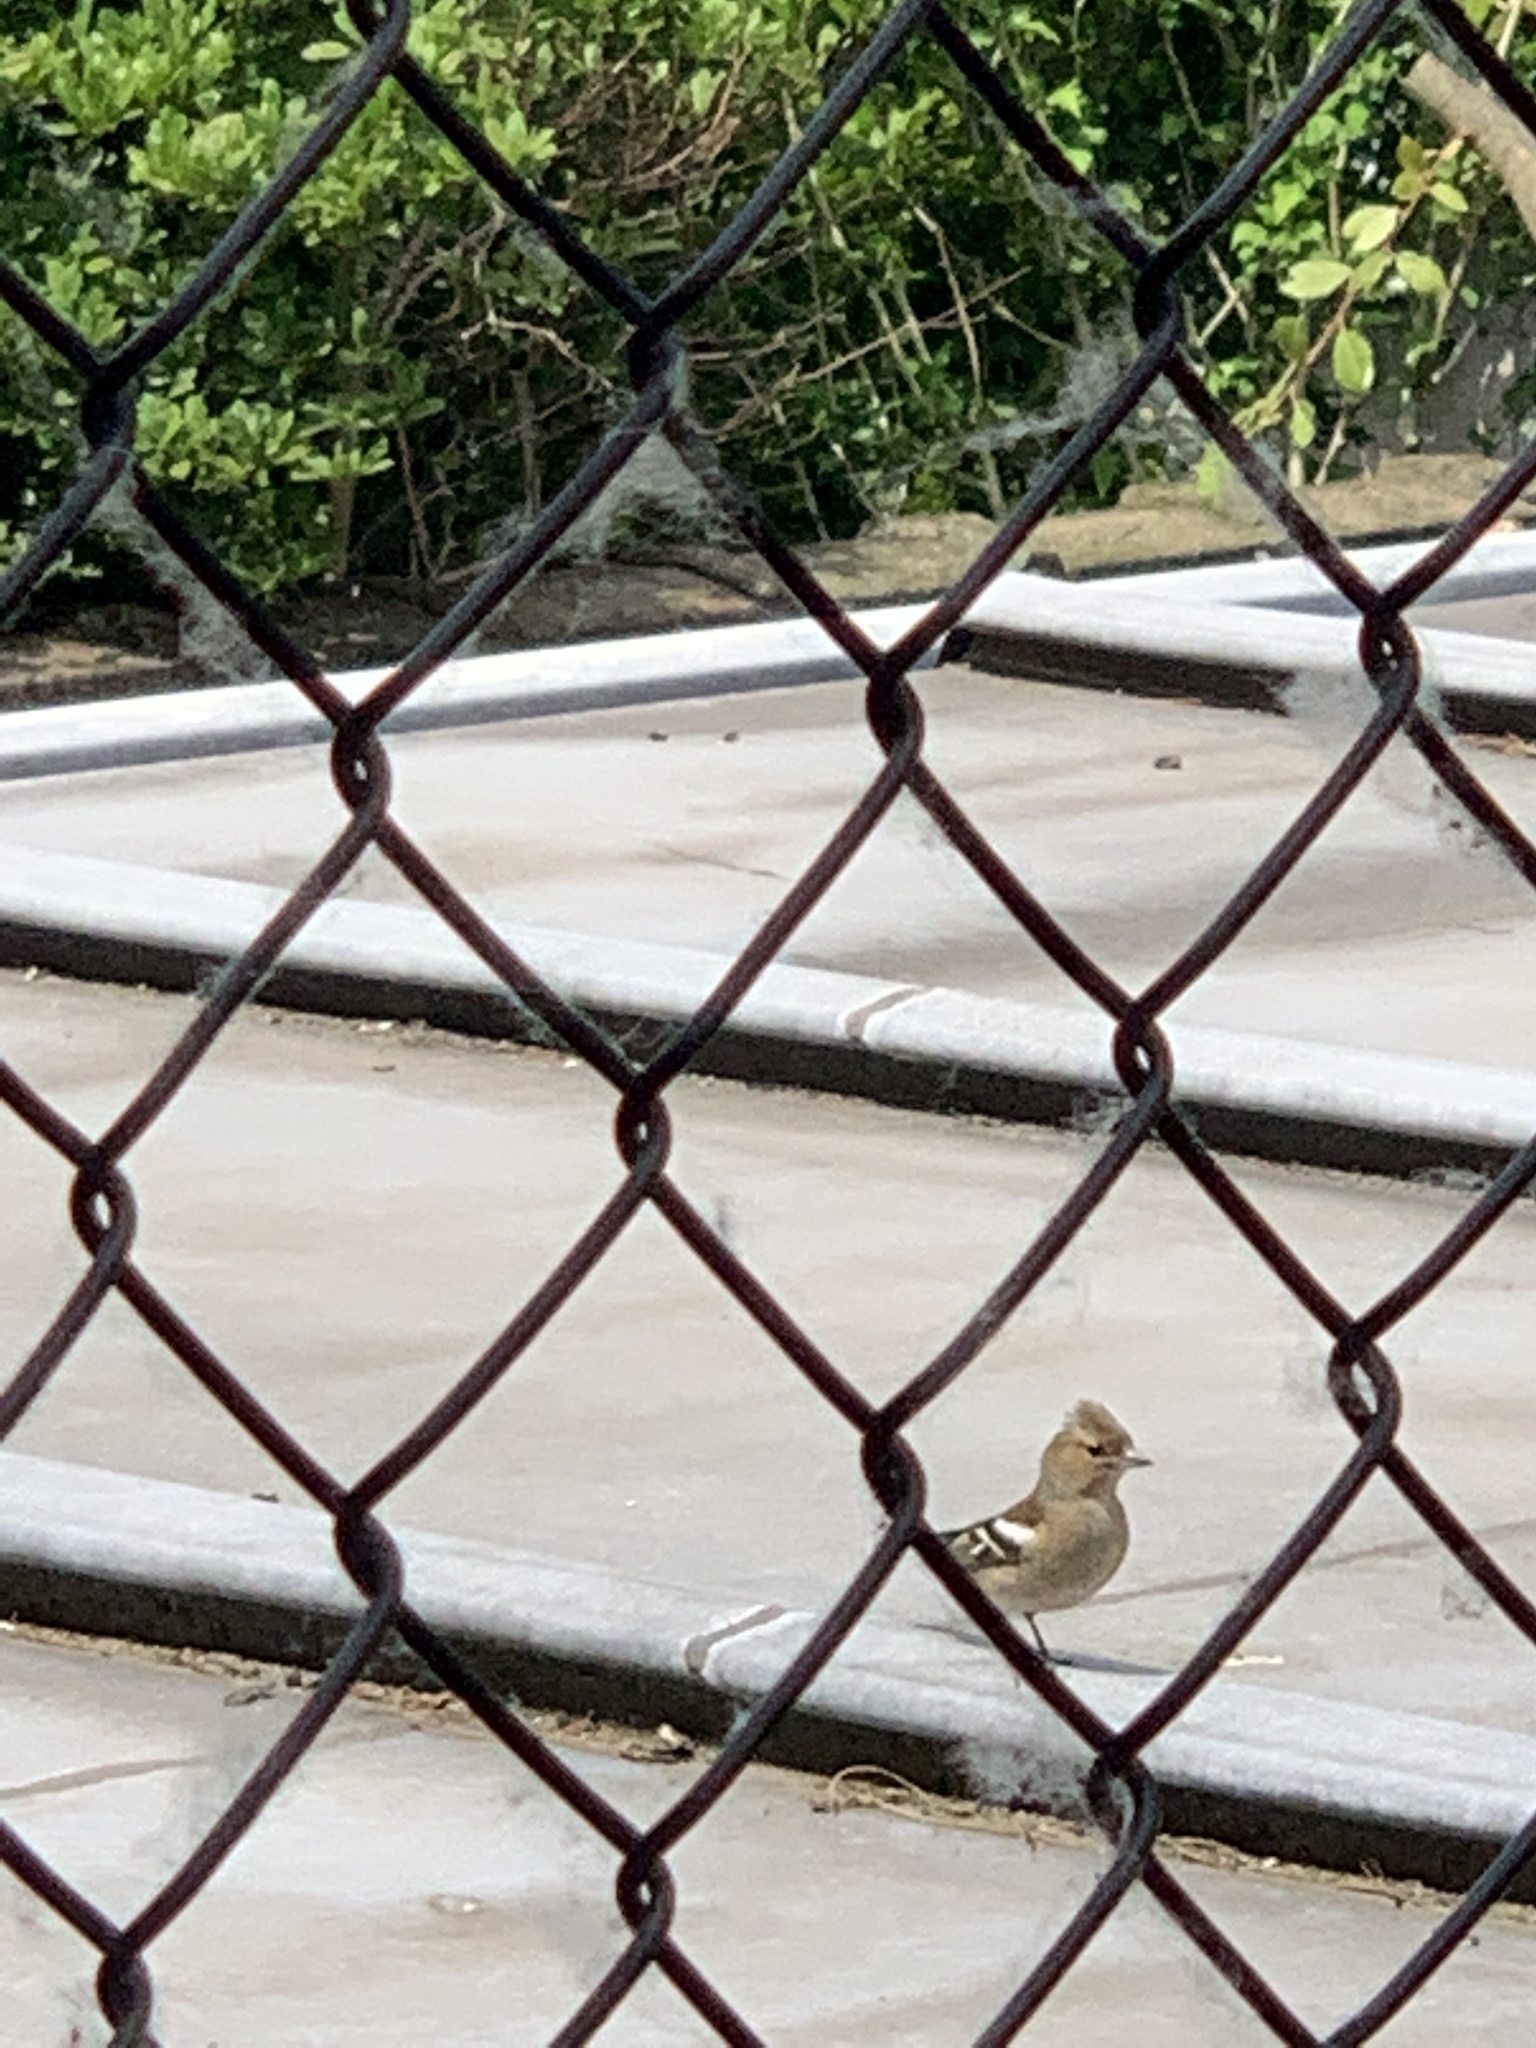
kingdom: Animalia
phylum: Chordata
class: Aves
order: Passeriformes
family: Fringillidae
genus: Fringilla
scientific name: Fringilla coelebs
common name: Common chaffinch
